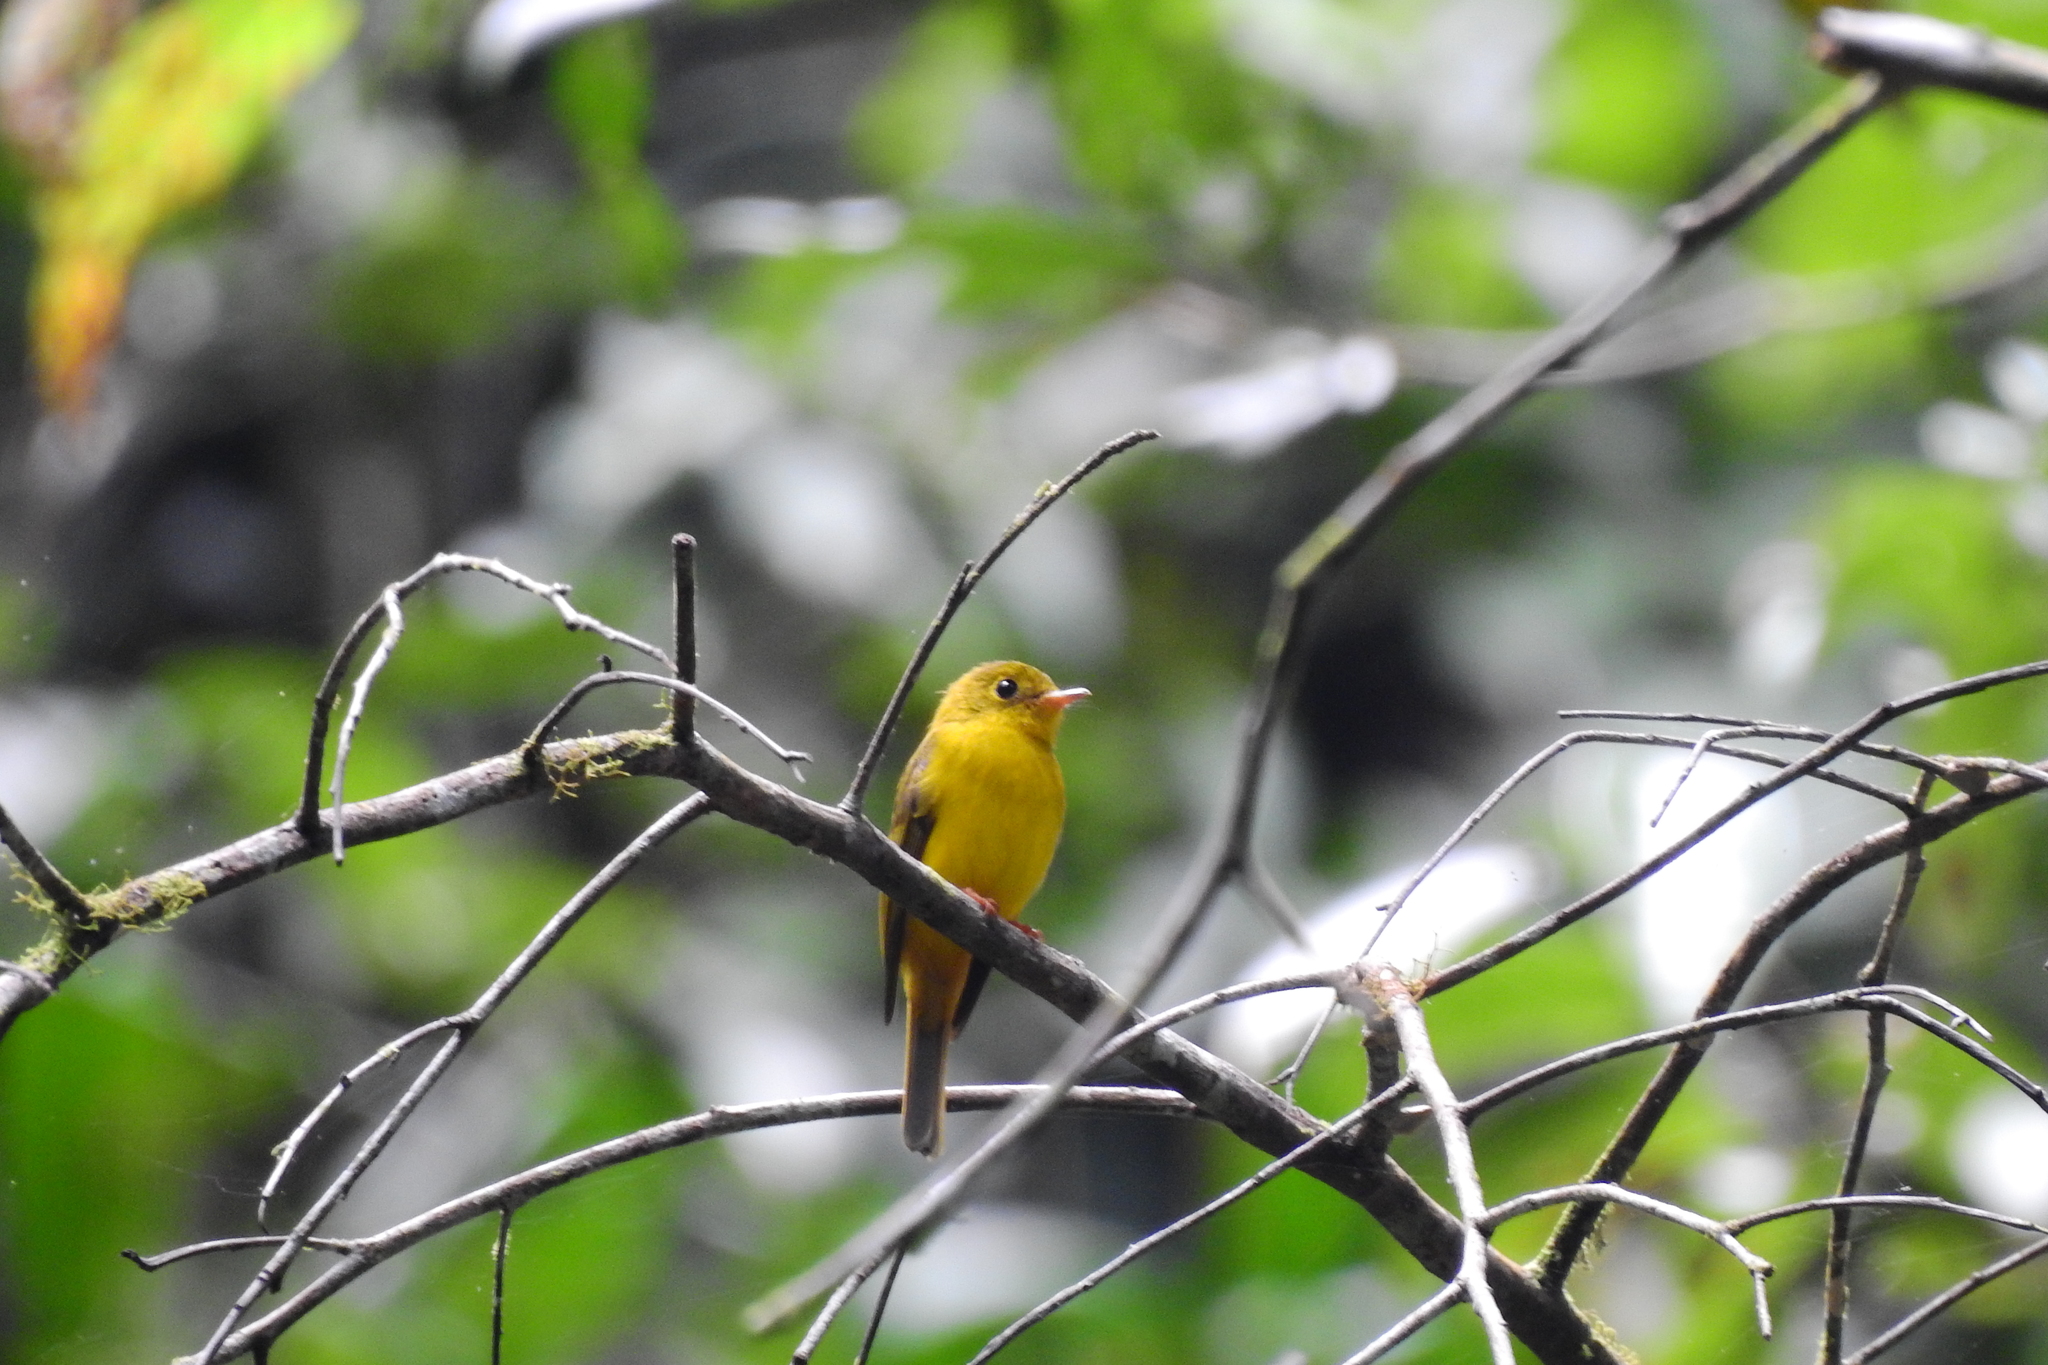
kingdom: Animalia
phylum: Chordata
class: Aves
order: Passeriformes
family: Stenostiridae
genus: Culicicapa
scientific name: Culicicapa helianthea
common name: Citrine canary-flycatcher
